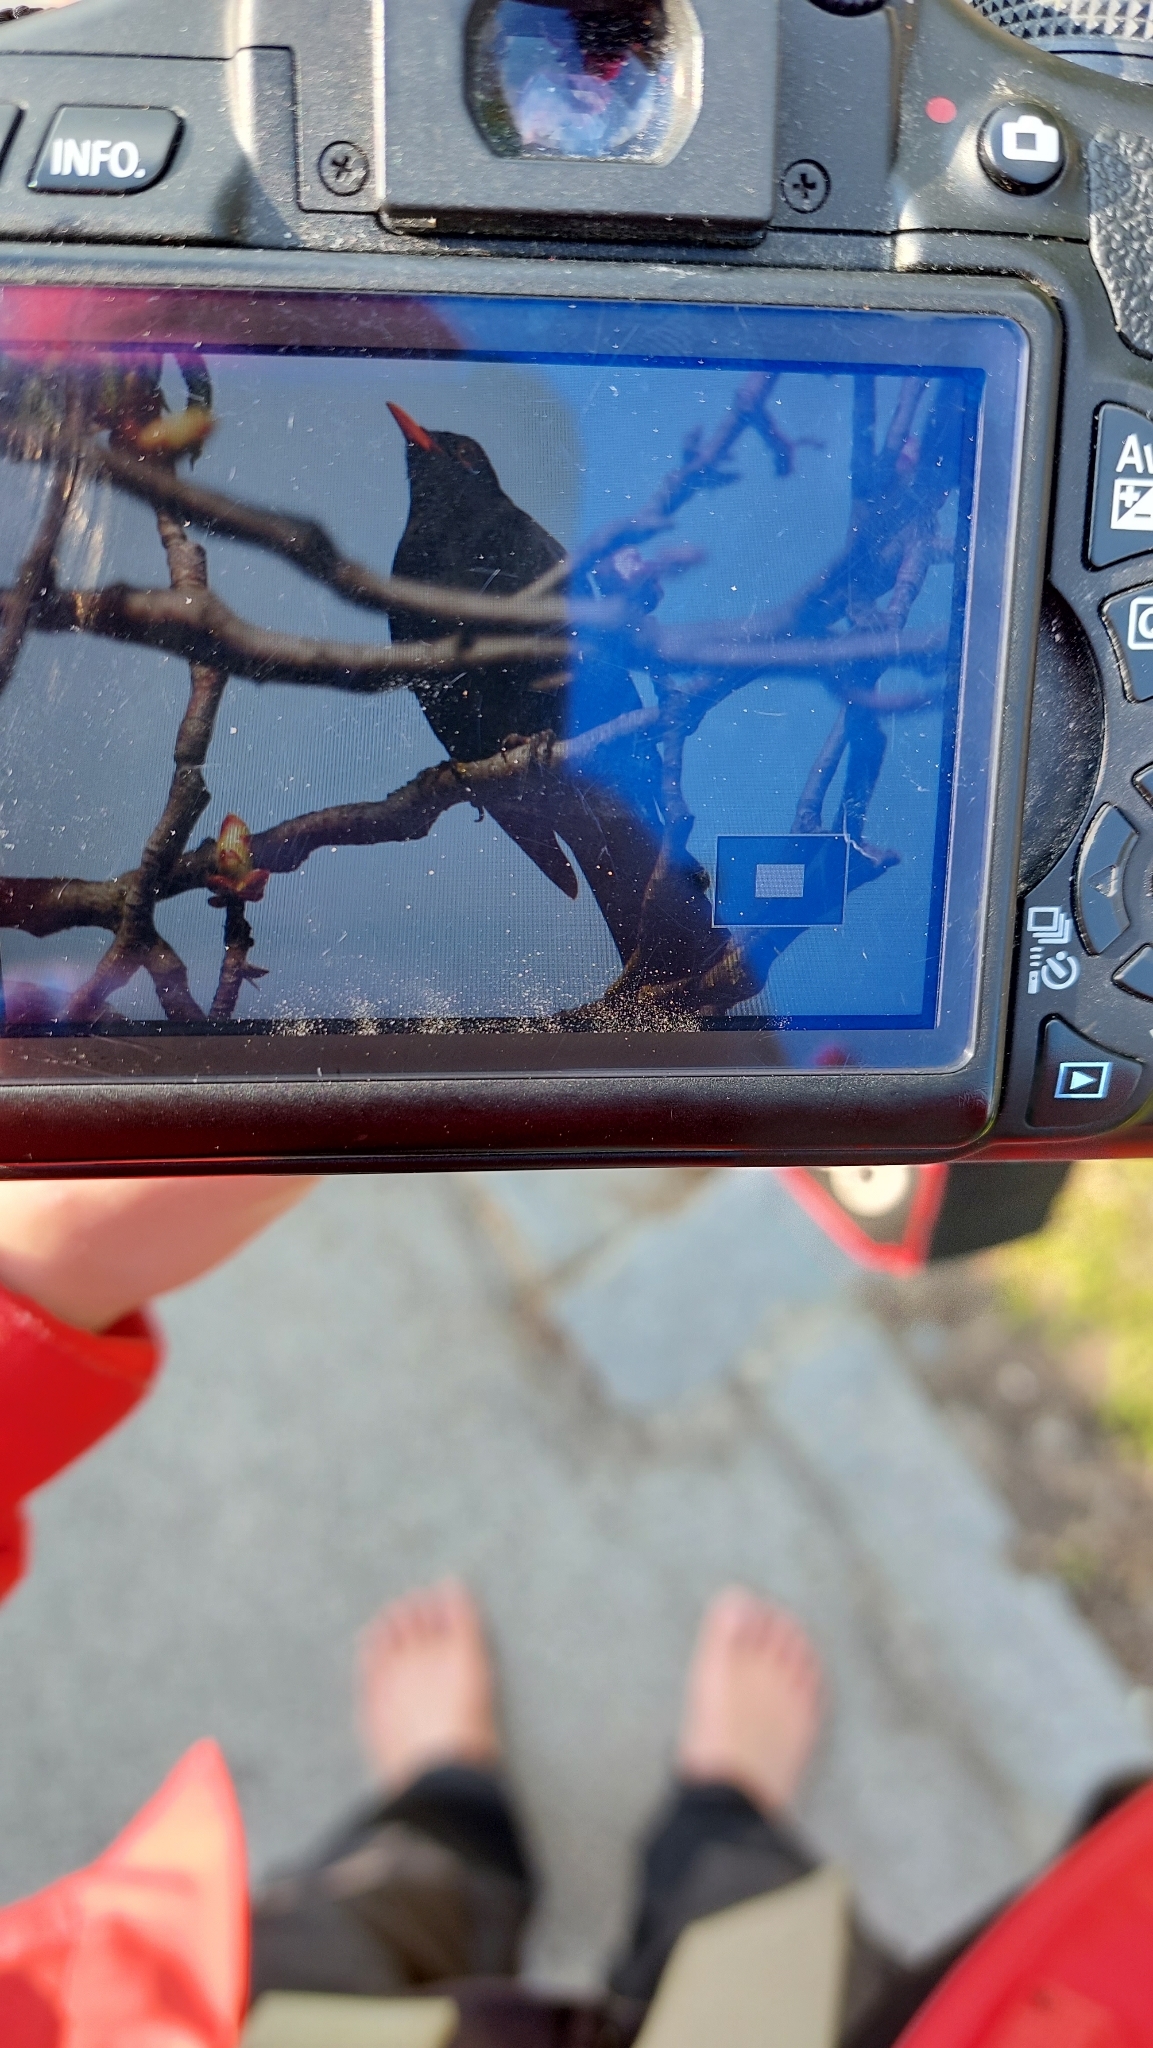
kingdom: Animalia
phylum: Chordata
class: Aves
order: Passeriformes
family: Turdidae
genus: Turdus
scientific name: Turdus merula
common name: Common blackbird
